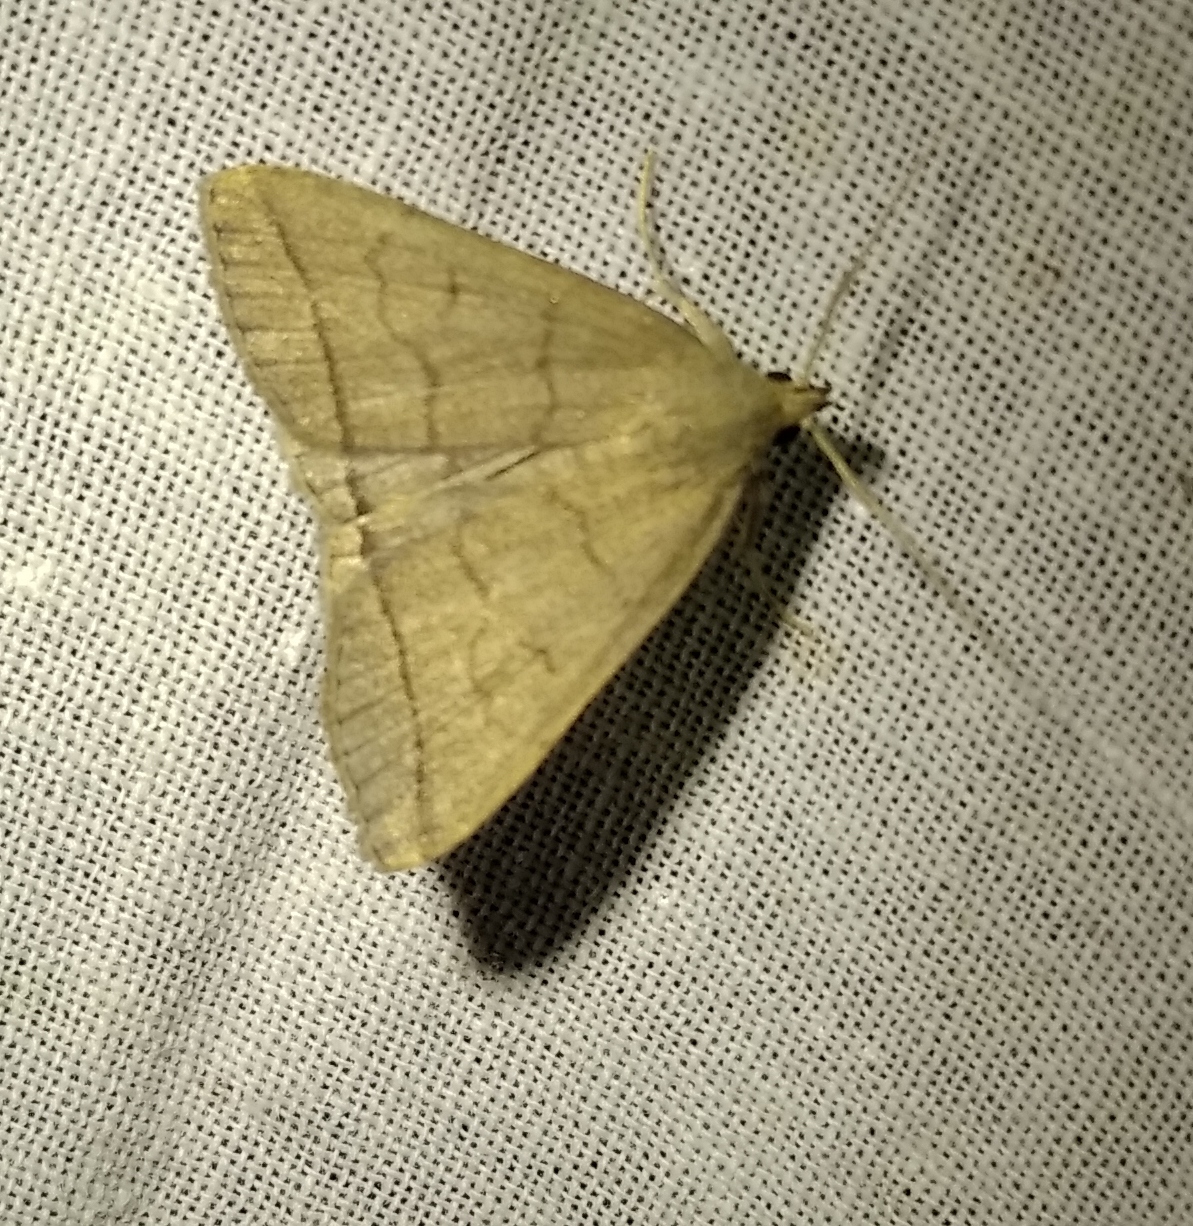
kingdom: Animalia
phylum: Arthropoda
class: Insecta
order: Lepidoptera
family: Erebidae
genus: Herminia
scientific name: Herminia tarsipennalis
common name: Fan-foot
